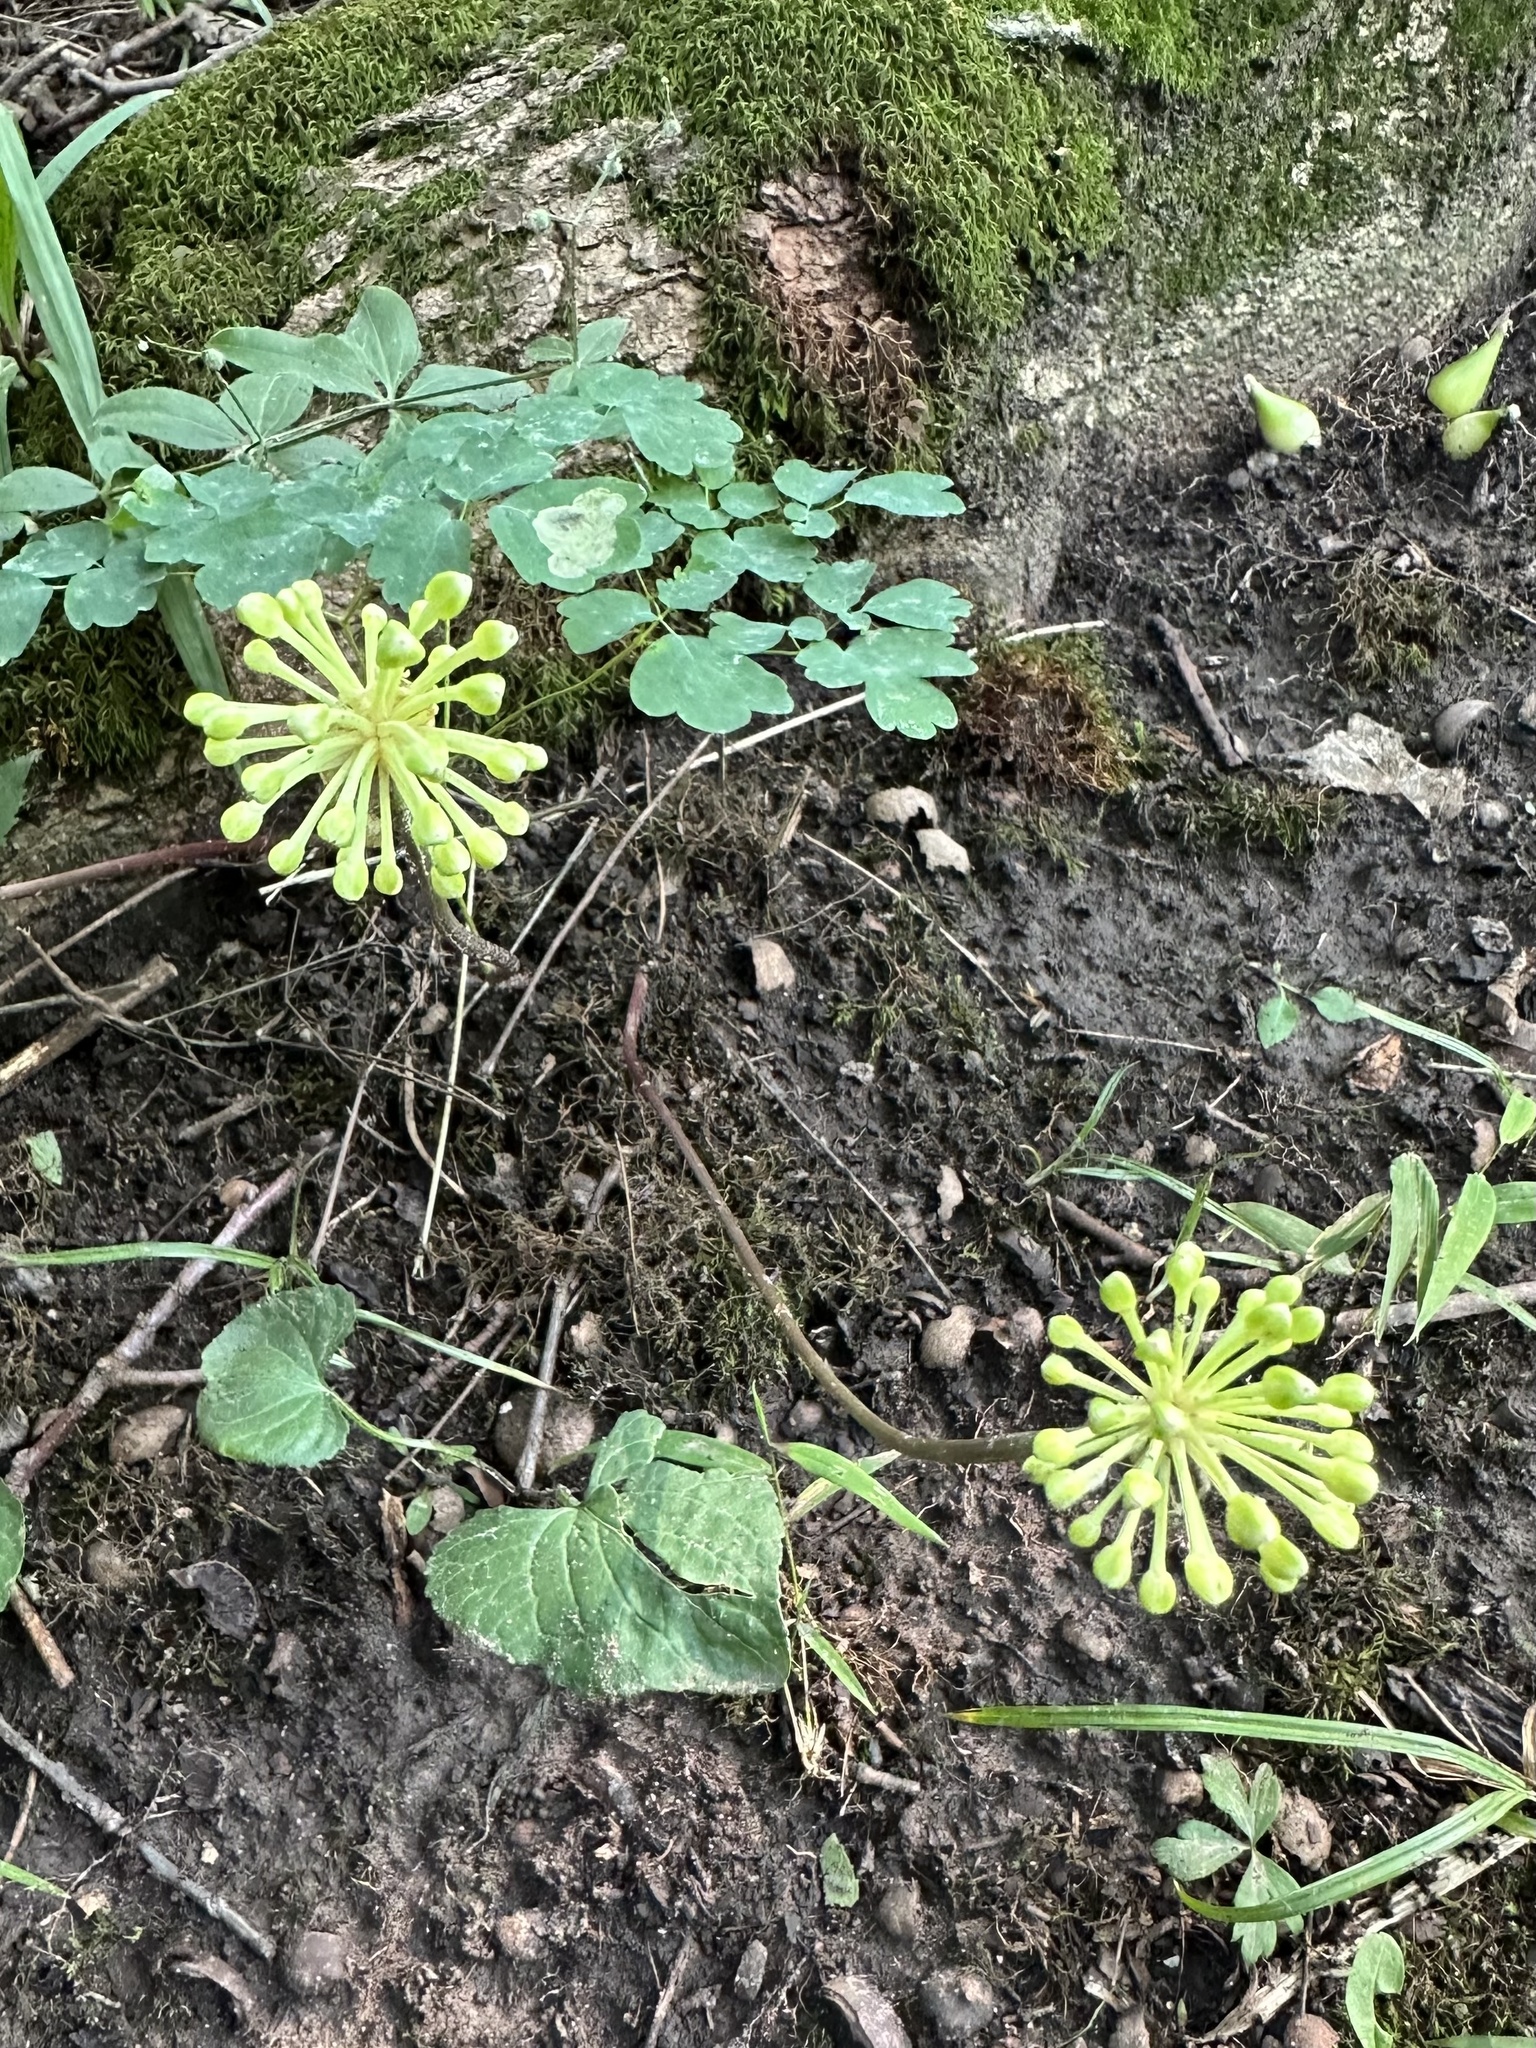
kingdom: Plantae
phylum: Tracheophyta
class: Liliopsida
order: Asparagales
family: Amaryllidaceae
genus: Allium
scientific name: Allium tricoccum
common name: Ramp
